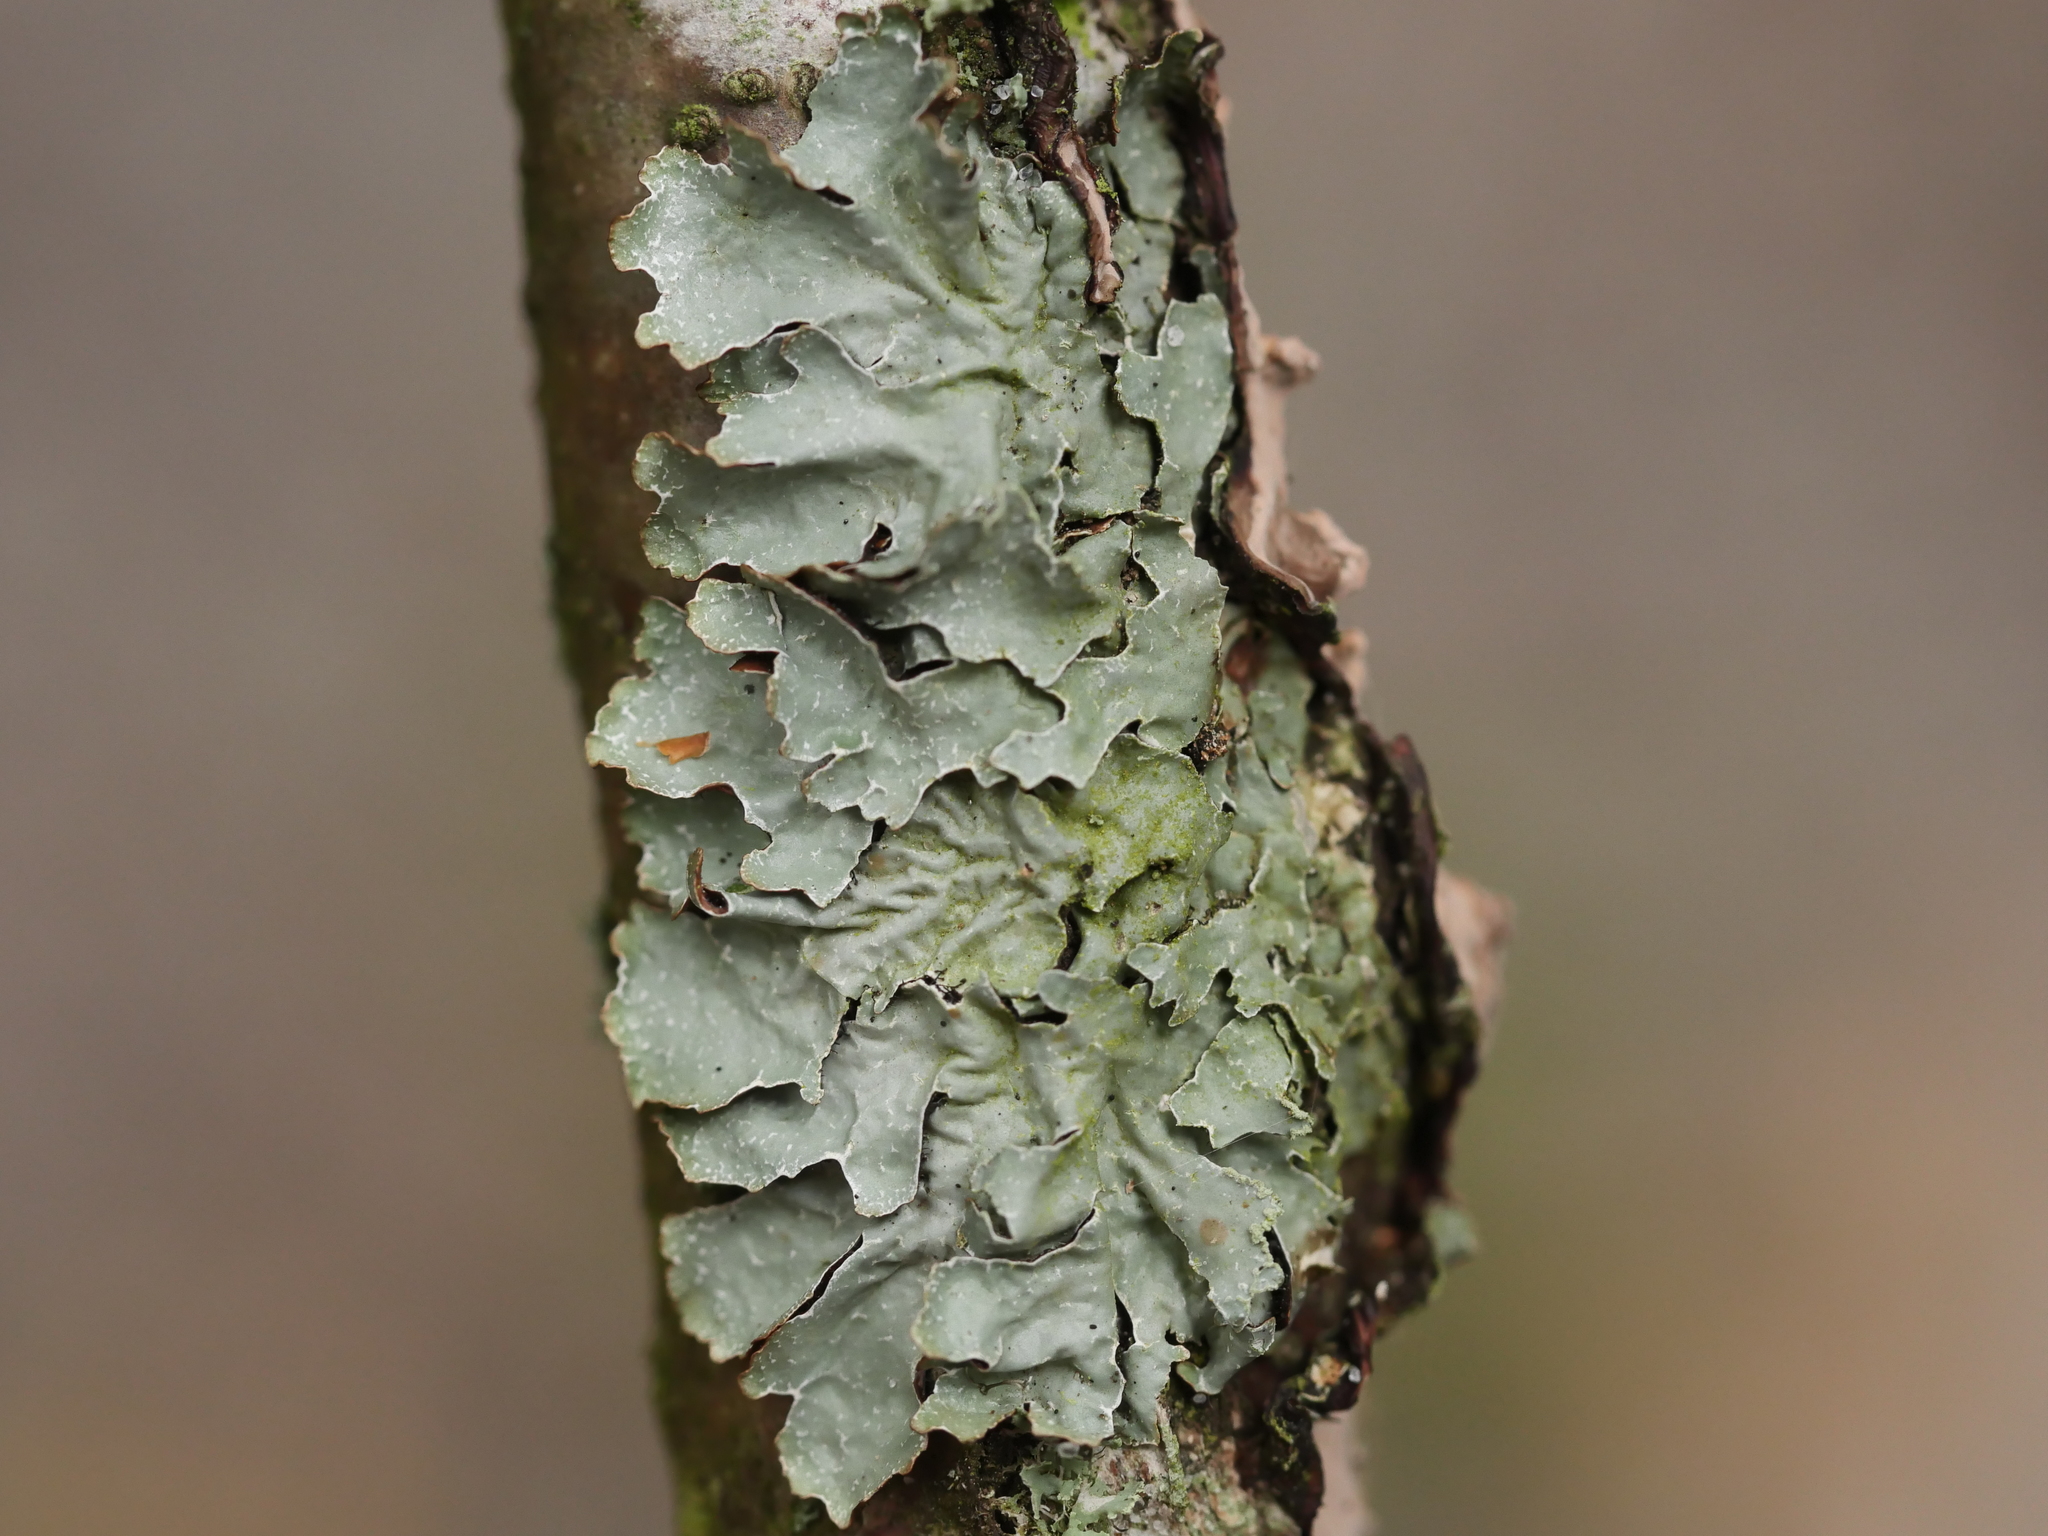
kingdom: Fungi
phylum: Ascomycota
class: Lecanoromycetes
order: Lecanorales
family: Parmeliaceae
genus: Parmelia
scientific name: Parmelia sulcata
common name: Netted shield lichen
